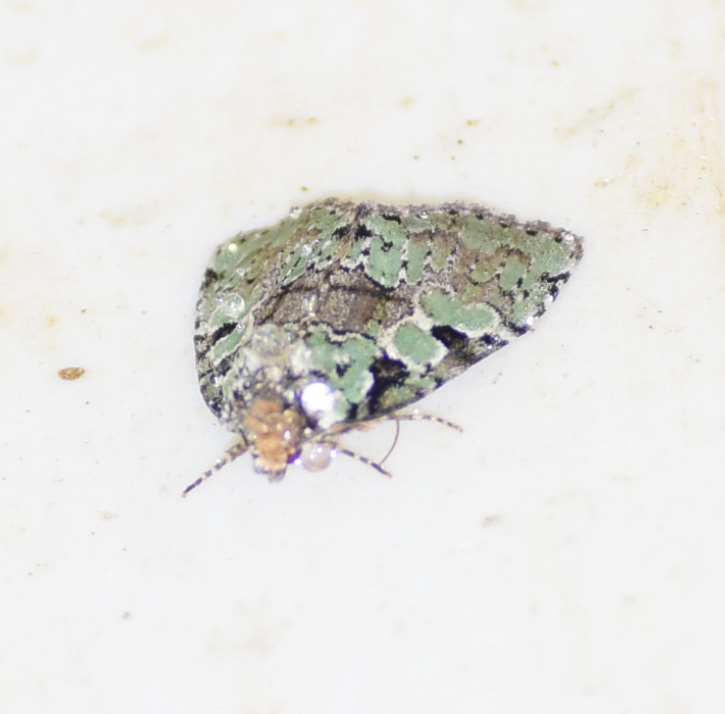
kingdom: Animalia
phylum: Arthropoda
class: Insecta
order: Lepidoptera
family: Noctuidae
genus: Leuconycta
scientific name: Leuconycta lepidula
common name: Marbled-green leuconycta moth
